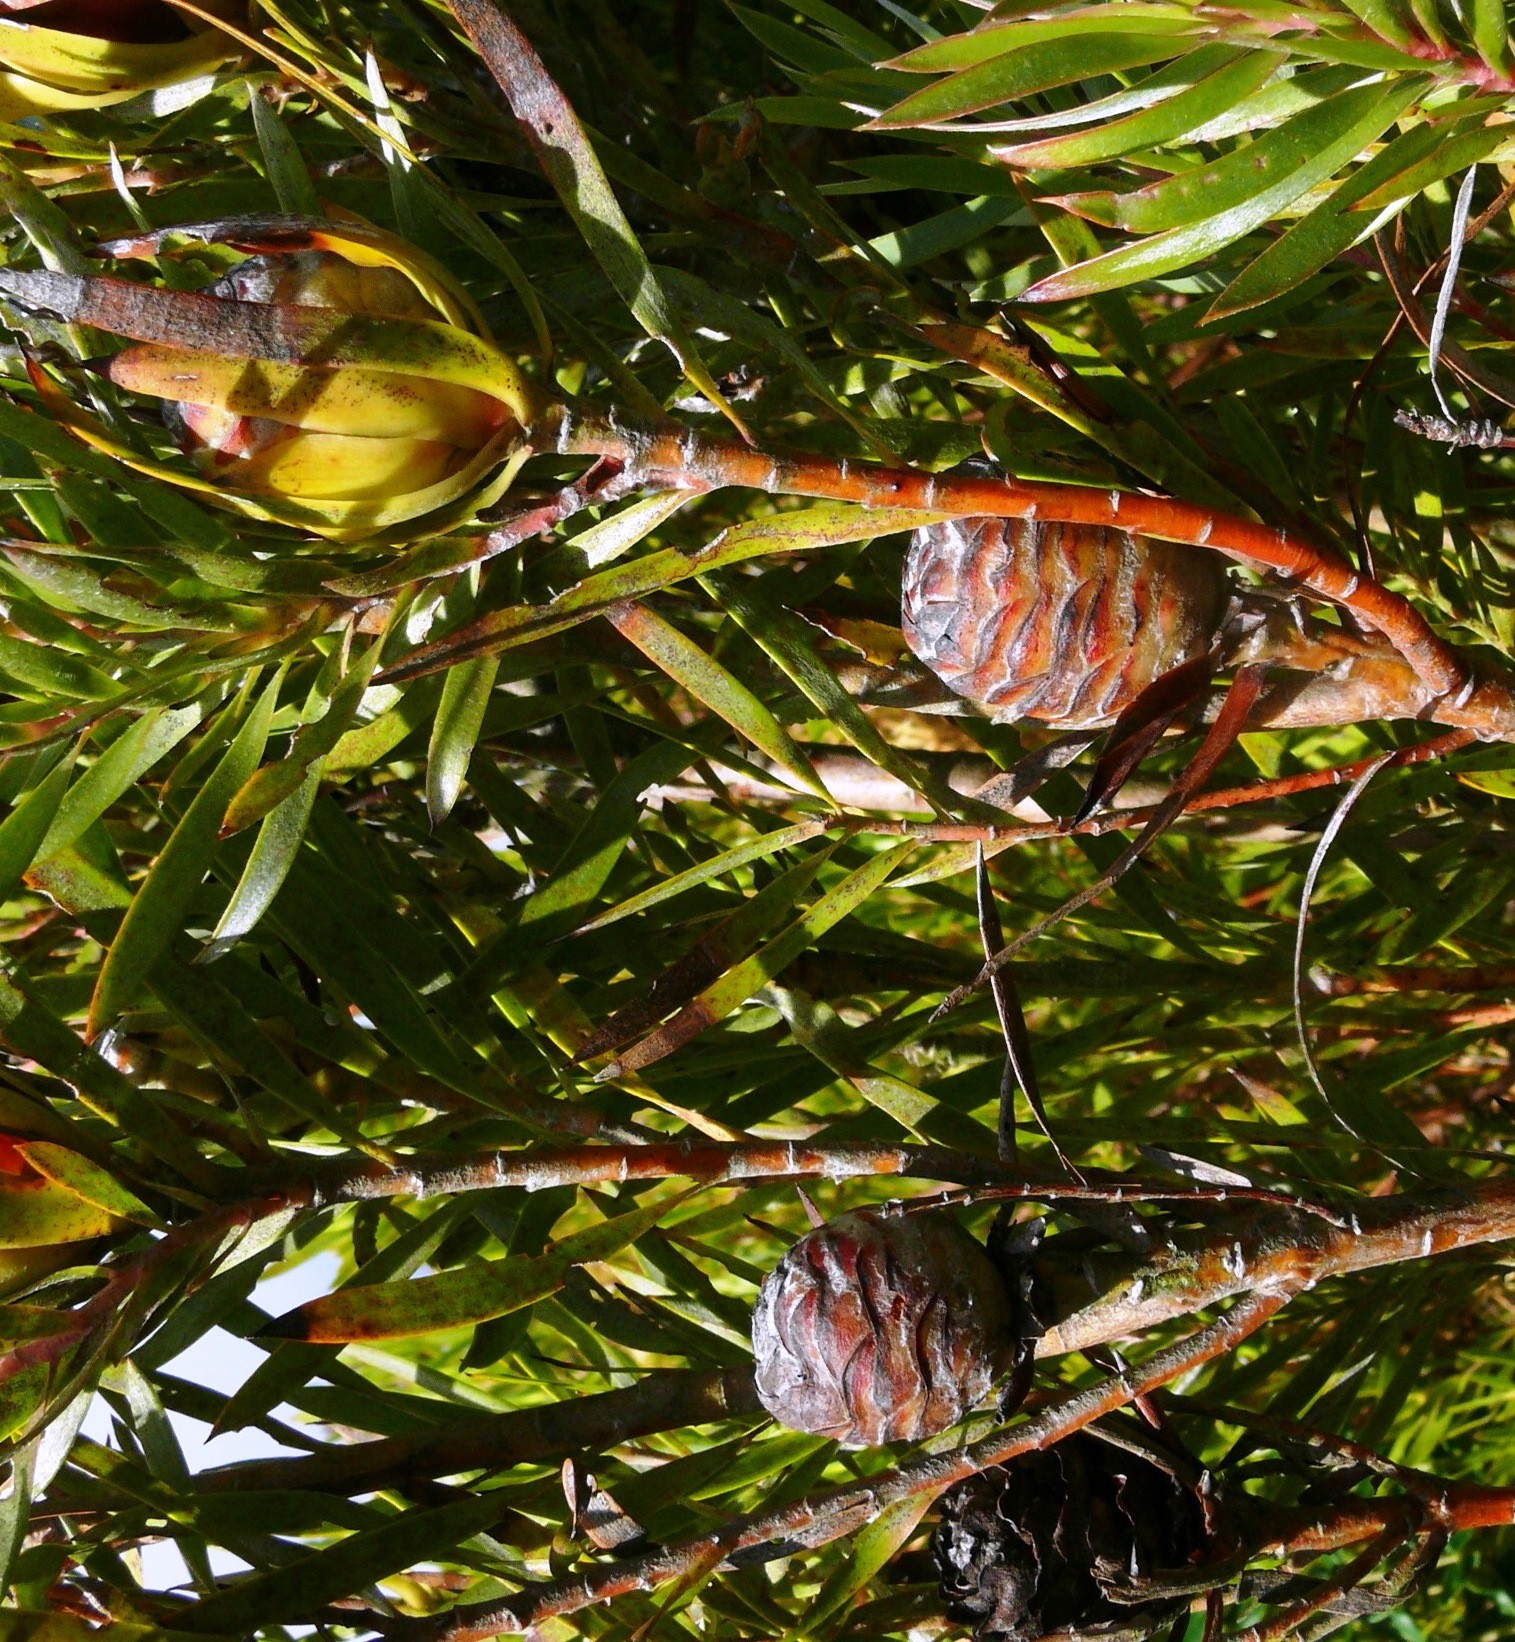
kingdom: Plantae
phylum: Tracheophyta
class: Magnoliopsida
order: Proteales
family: Proteaceae
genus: Leucadendron
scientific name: Leucadendron xanthoconus
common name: Sickle-leaf conebush
